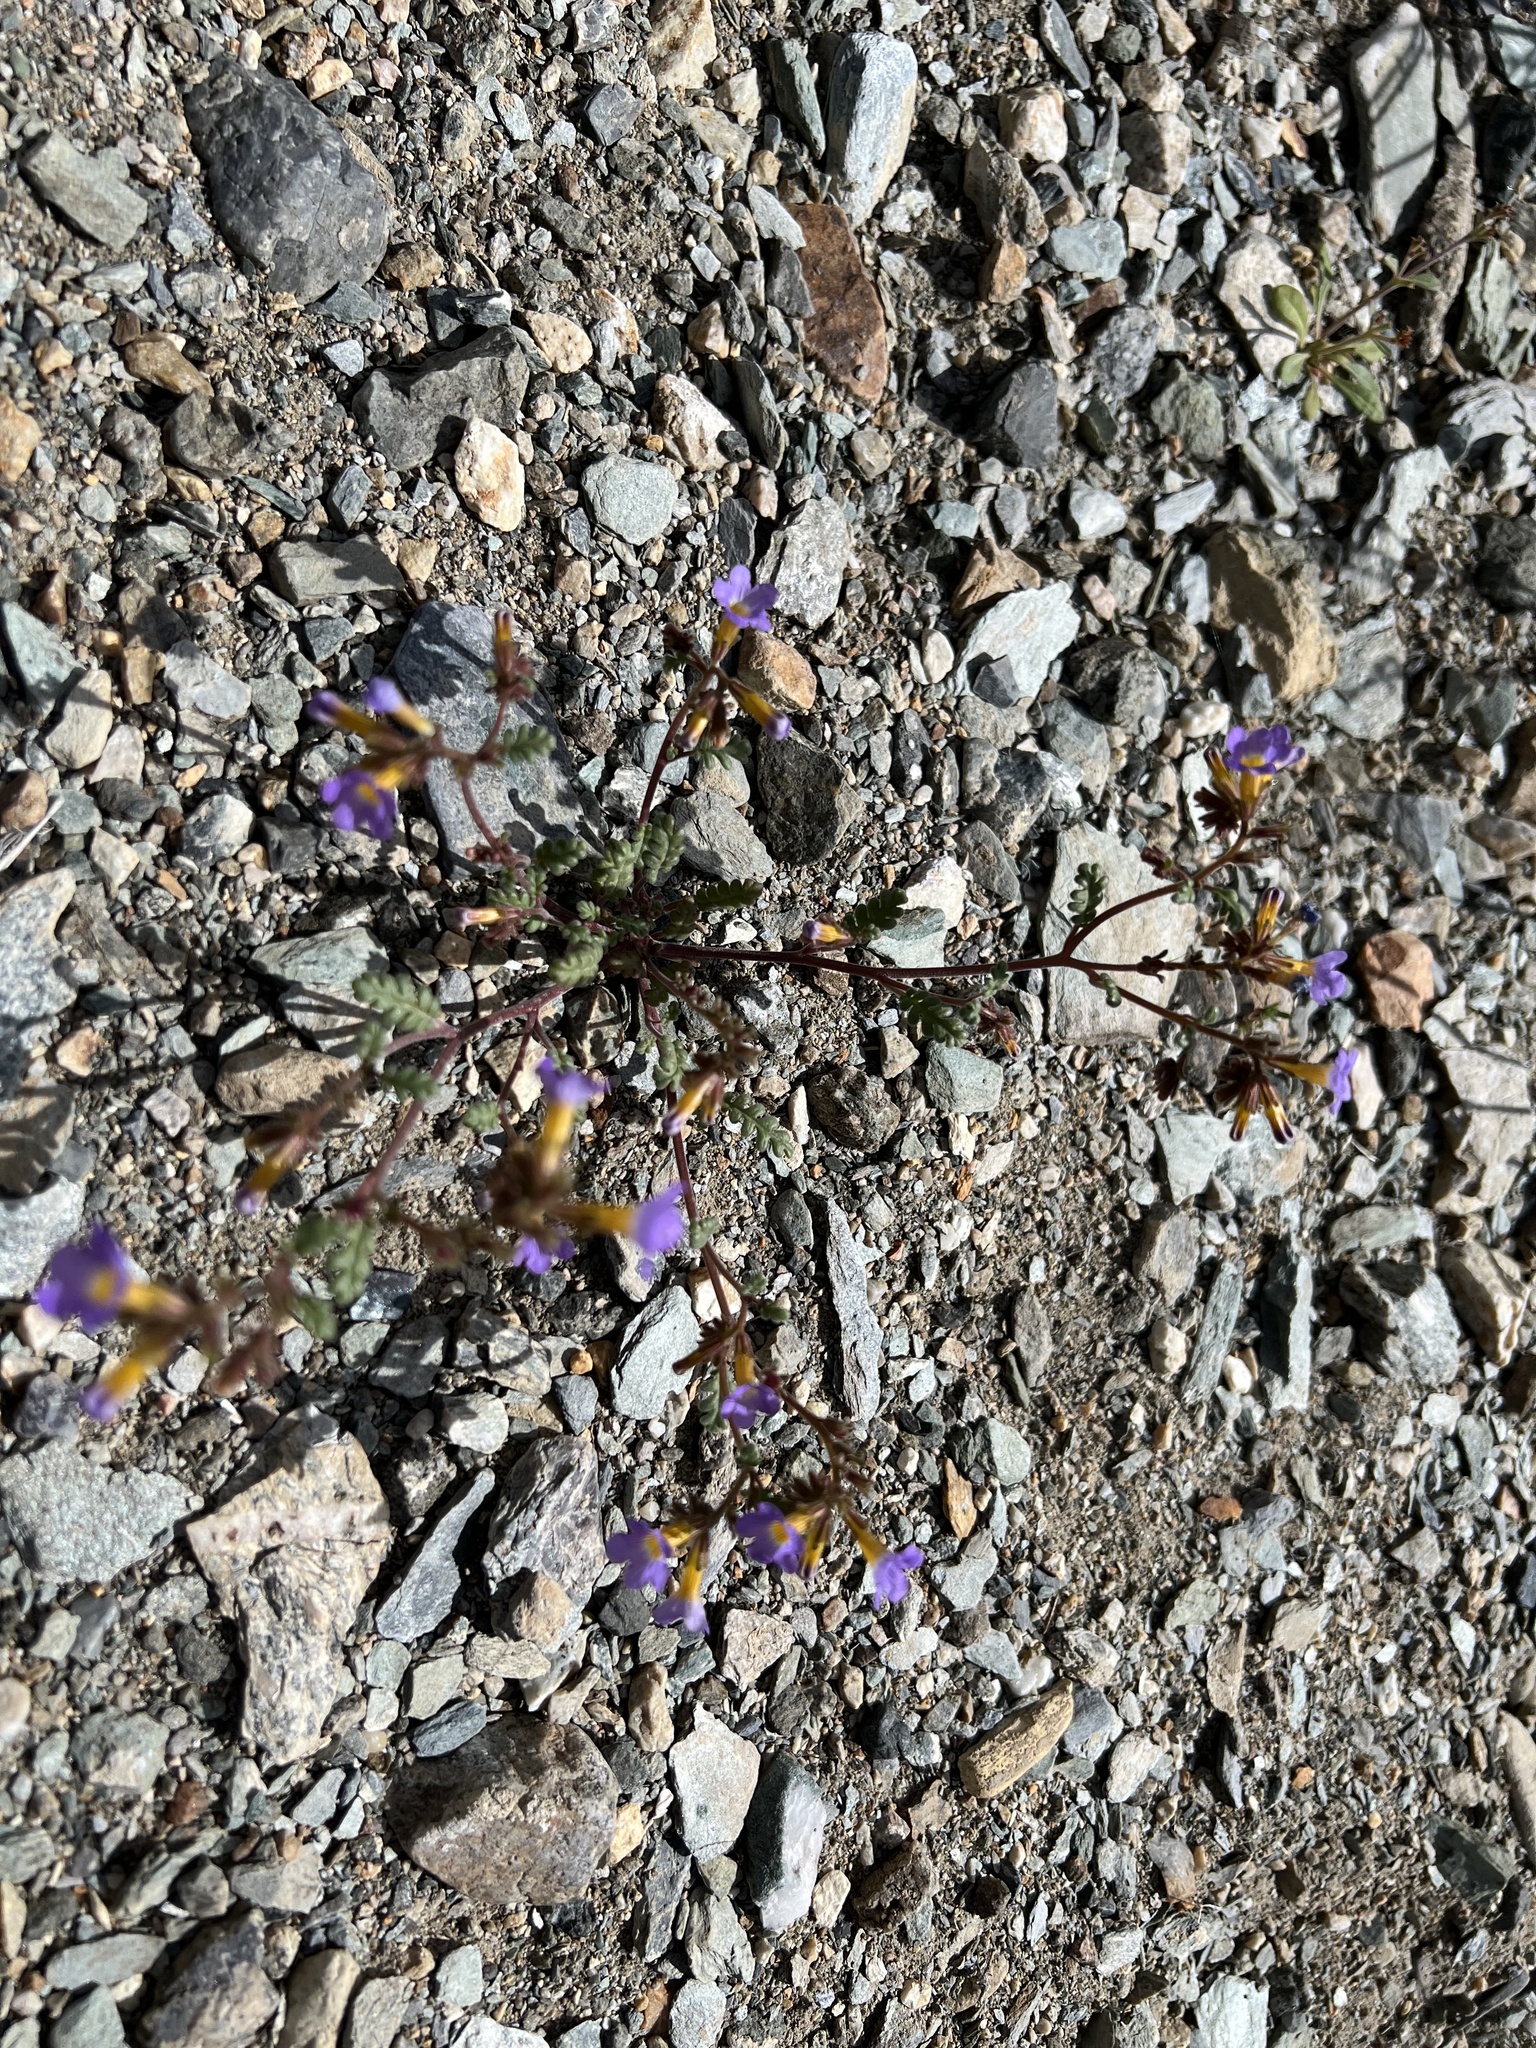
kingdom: Plantae
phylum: Tracheophyta
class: Magnoliopsida
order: Boraginales
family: Hydrophyllaceae
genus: Phacelia
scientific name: Phacelia fremontii
